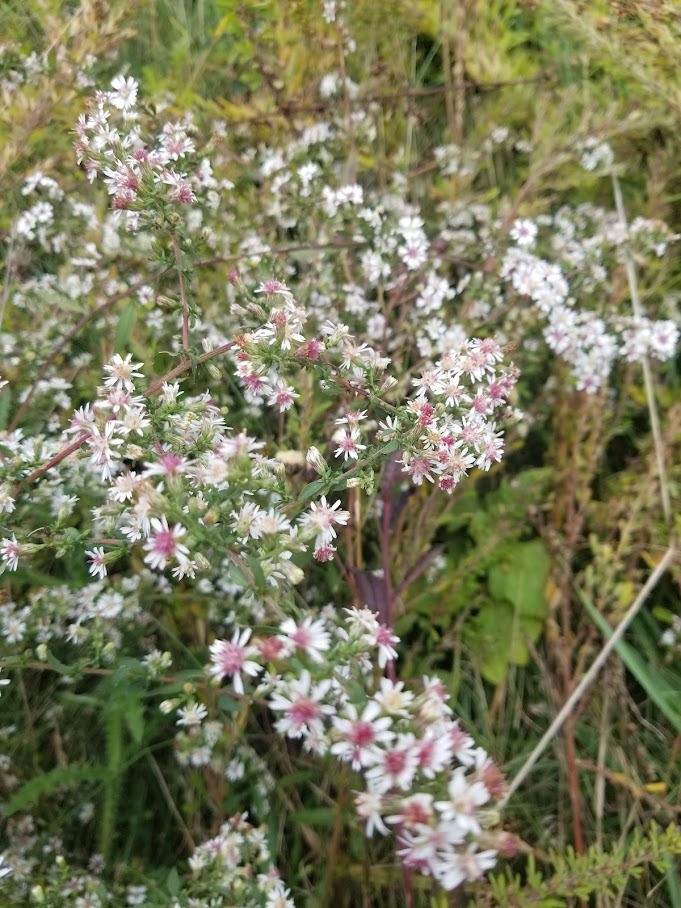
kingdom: Plantae
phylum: Tracheophyta
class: Magnoliopsida
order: Asterales
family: Asteraceae
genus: Symphyotrichum
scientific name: Symphyotrichum lateriflorum
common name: Calico aster
